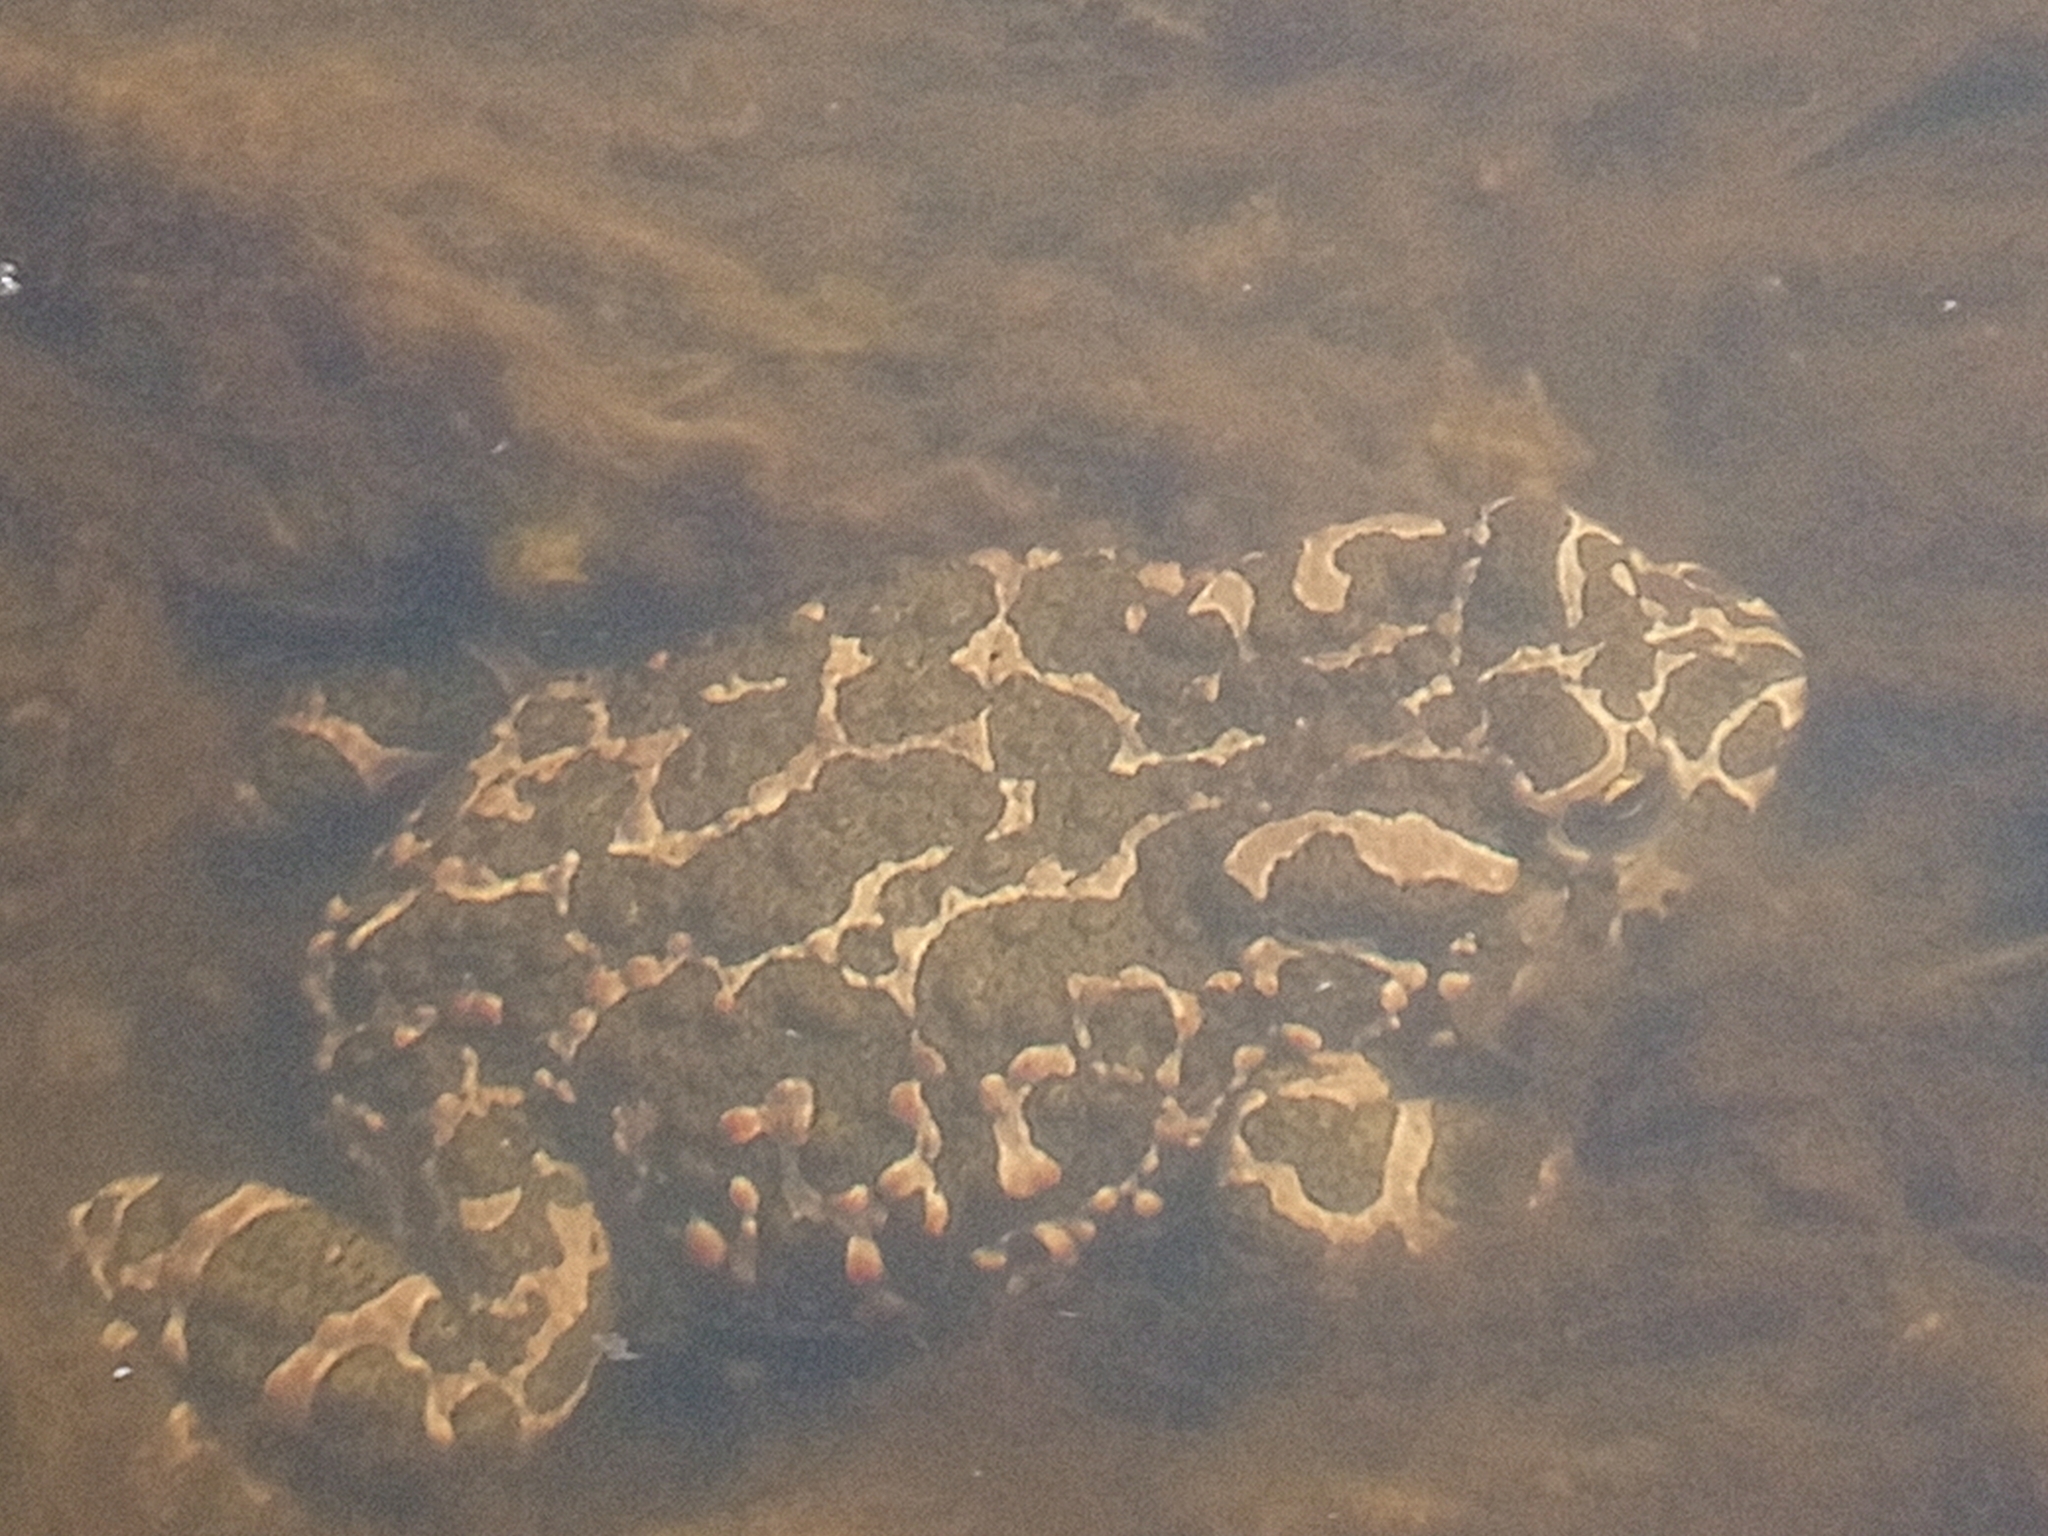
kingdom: Animalia
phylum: Chordata
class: Amphibia
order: Anura
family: Bufonidae
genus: Bufotes
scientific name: Bufotes viridis
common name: European green toad
